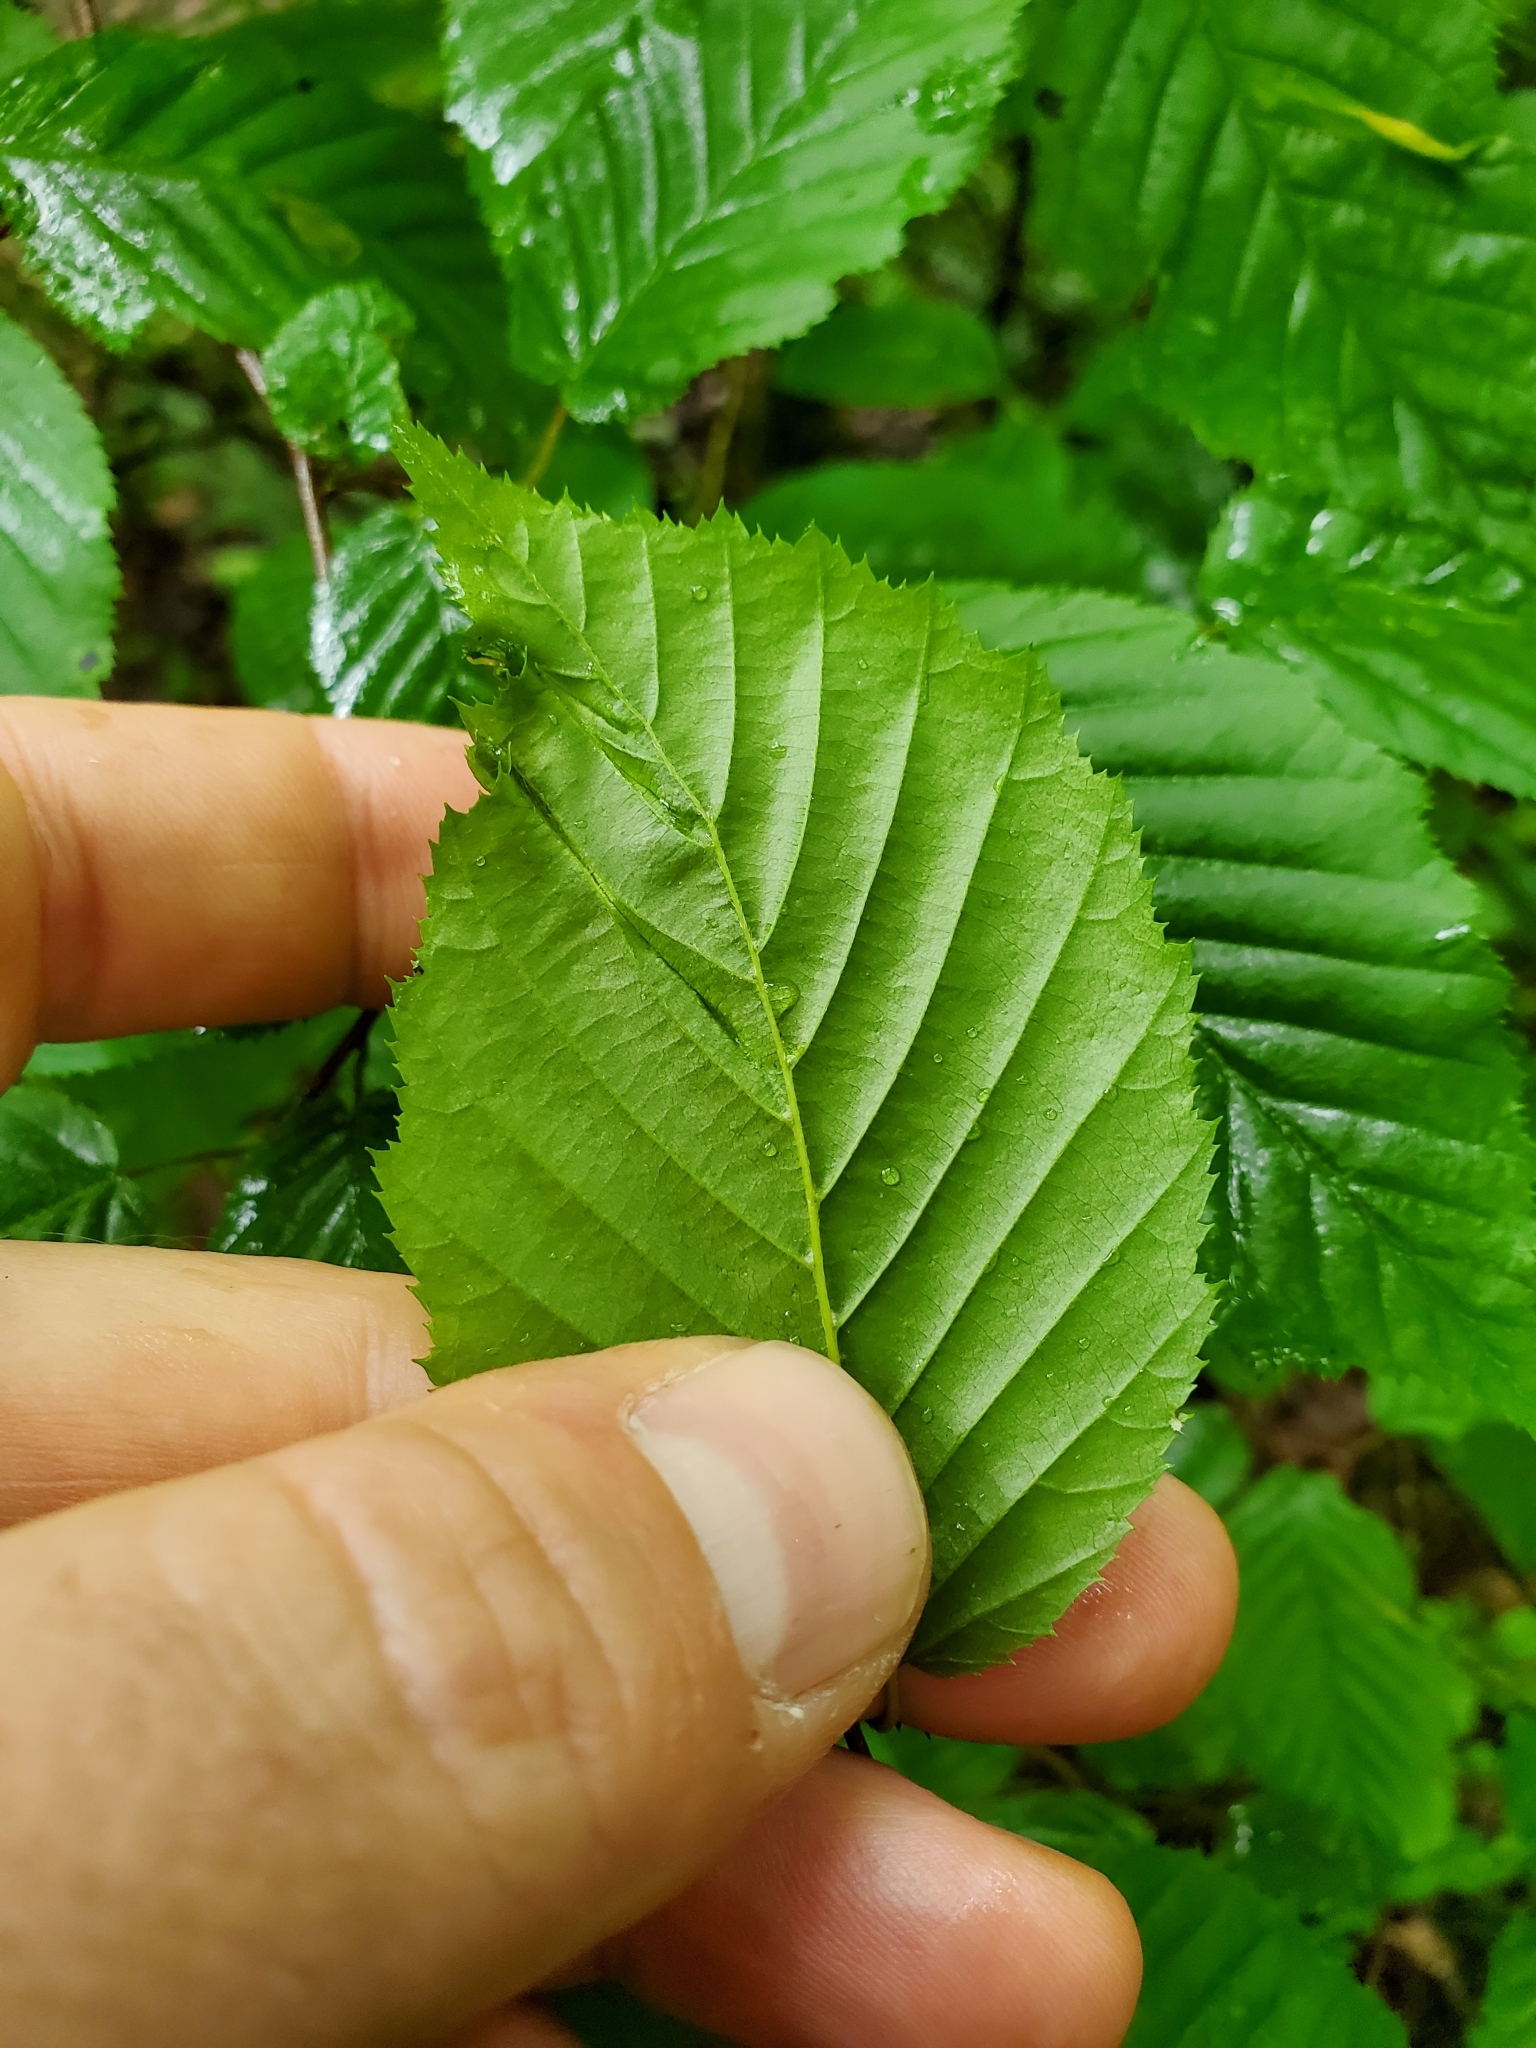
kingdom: Animalia
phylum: Arthropoda
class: Insecta
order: Diptera
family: Cecidomyiidae
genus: Dasineura
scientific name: Dasineura pudibunda
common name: Hornbeam leaf gall midge
